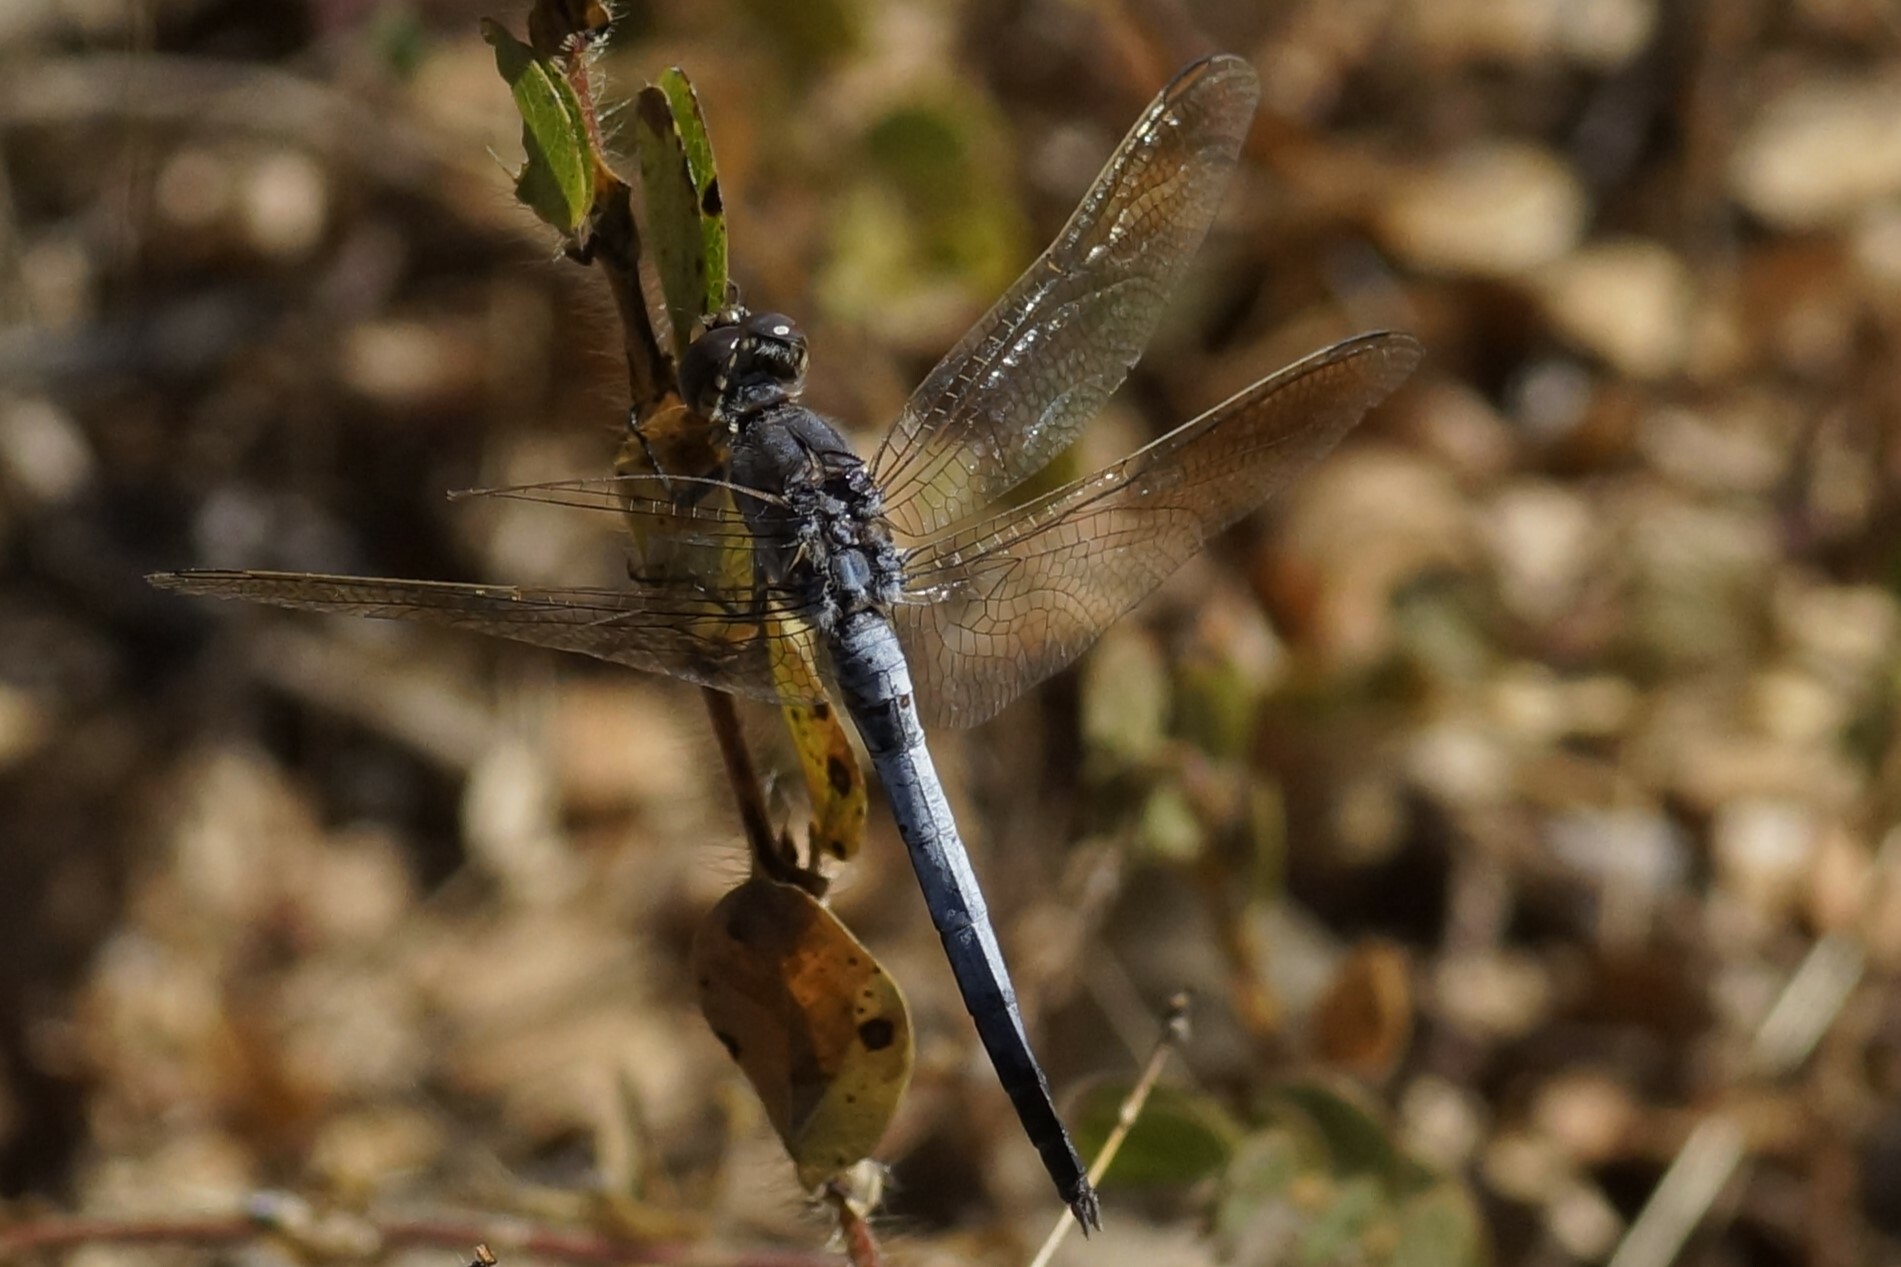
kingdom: Animalia
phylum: Arthropoda
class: Insecta
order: Odonata
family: Libellulidae
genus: Orthetrum
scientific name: Orthetrum caledonicum
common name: Blue skimmer
